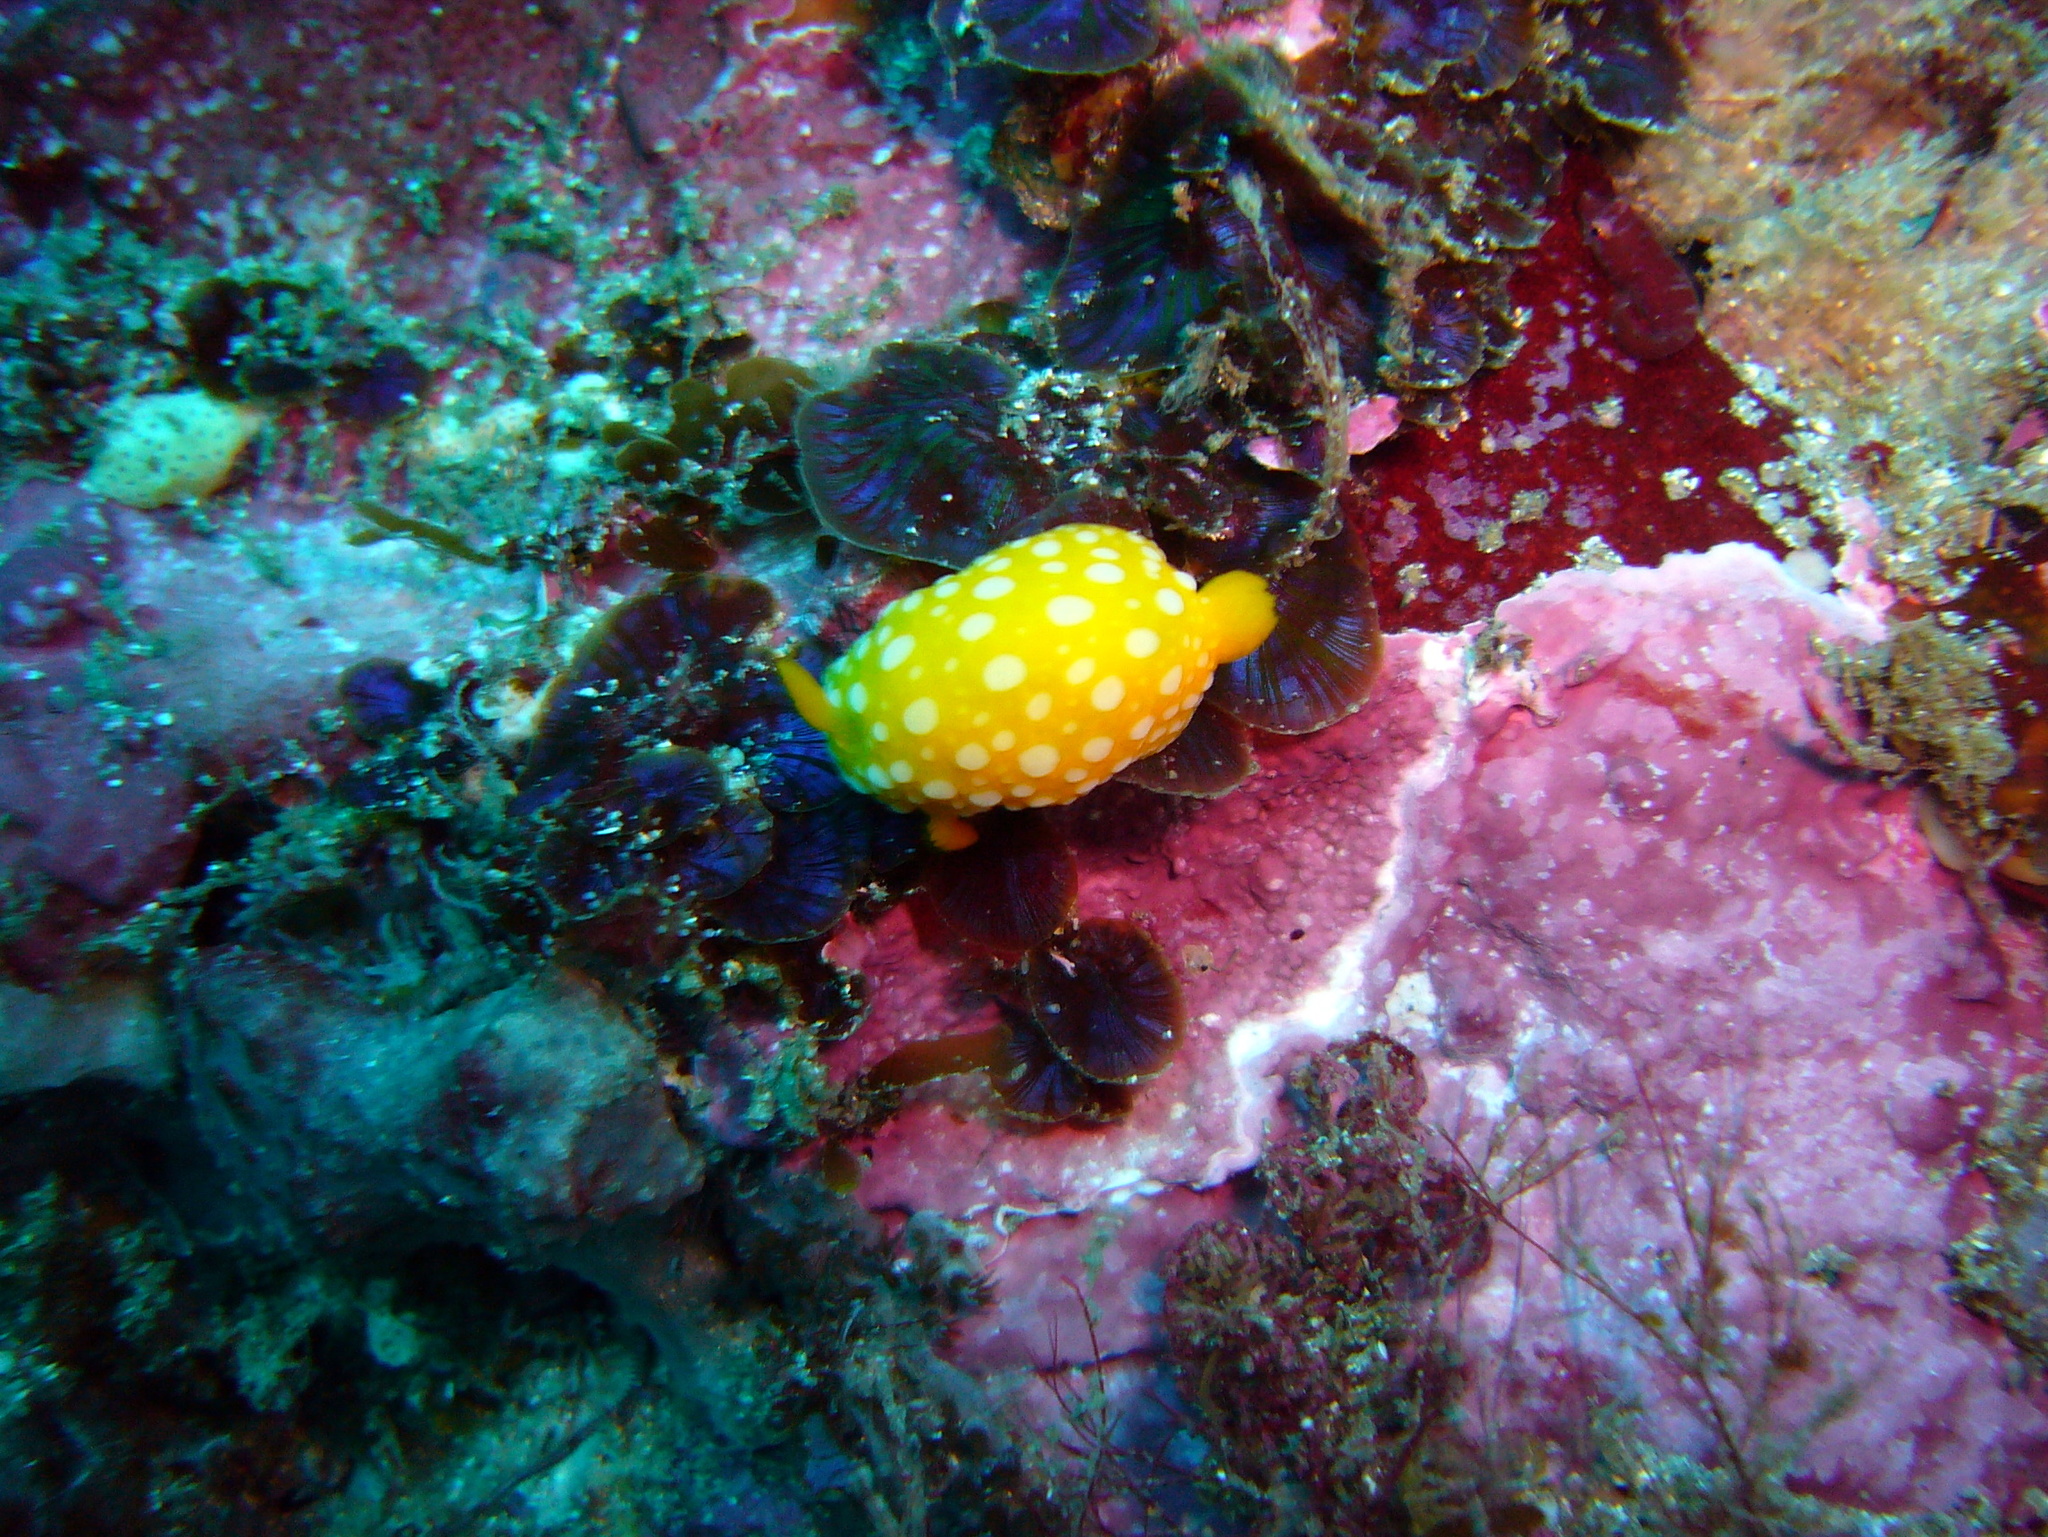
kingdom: Animalia
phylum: Mollusca
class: Gastropoda
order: Nudibranchia
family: Dorididae
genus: Doris
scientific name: Doris chrysoderma
